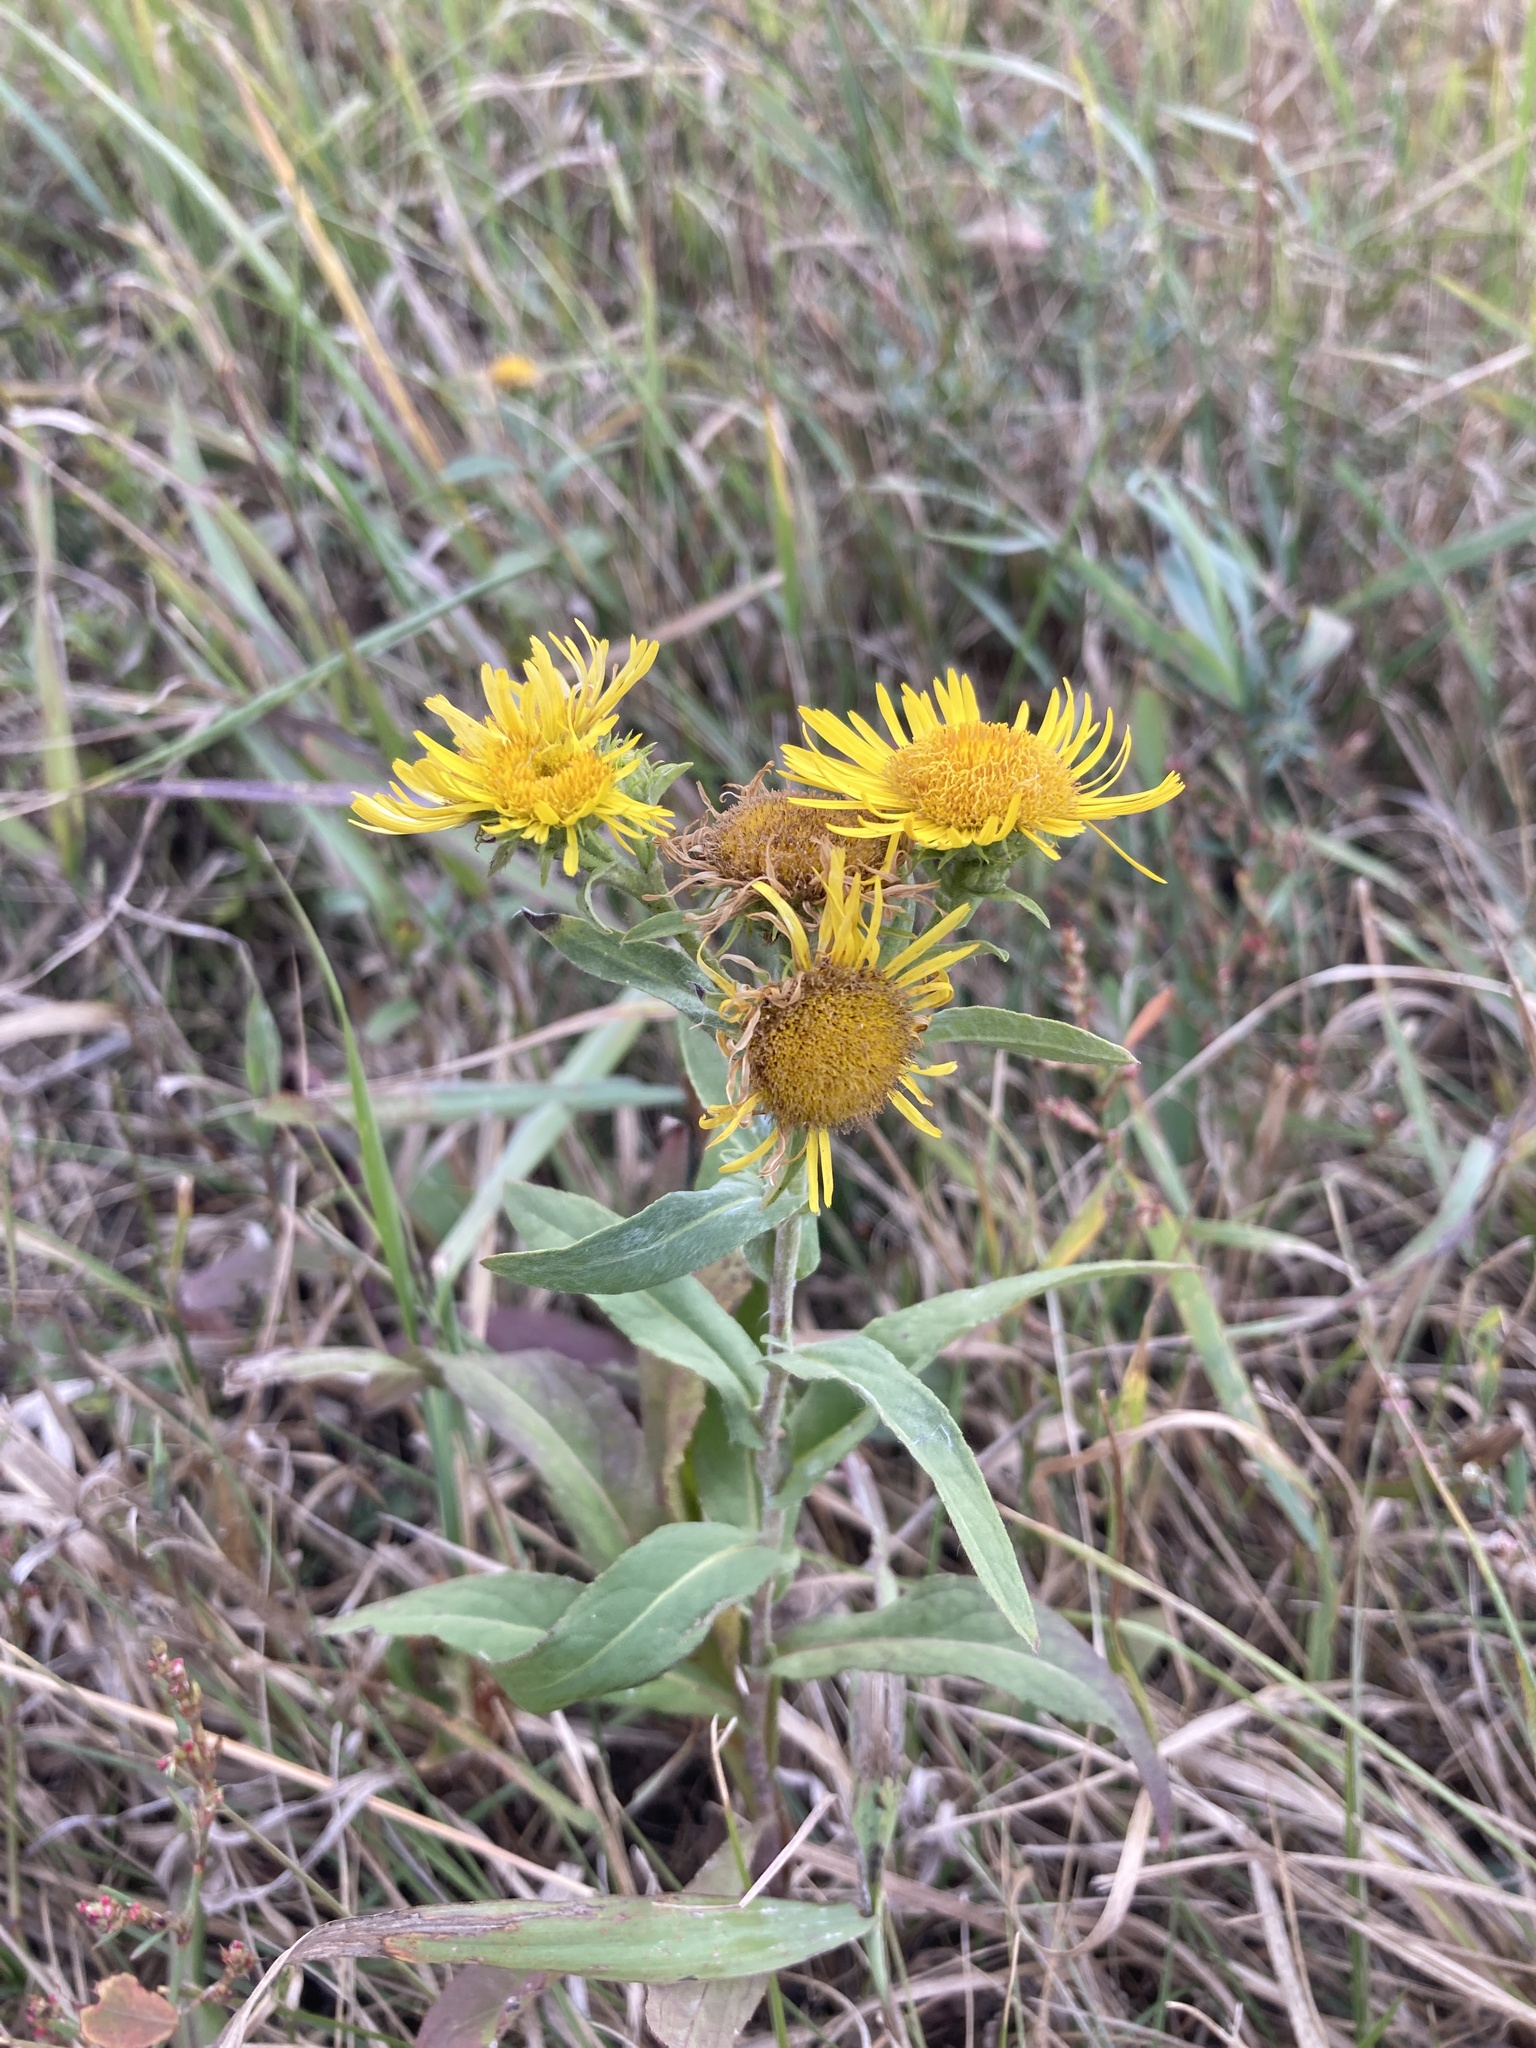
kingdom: Plantae
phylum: Tracheophyta
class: Magnoliopsida
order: Asterales
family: Asteraceae
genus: Pentanema
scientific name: Pentanema britannicum
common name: British elecampane
